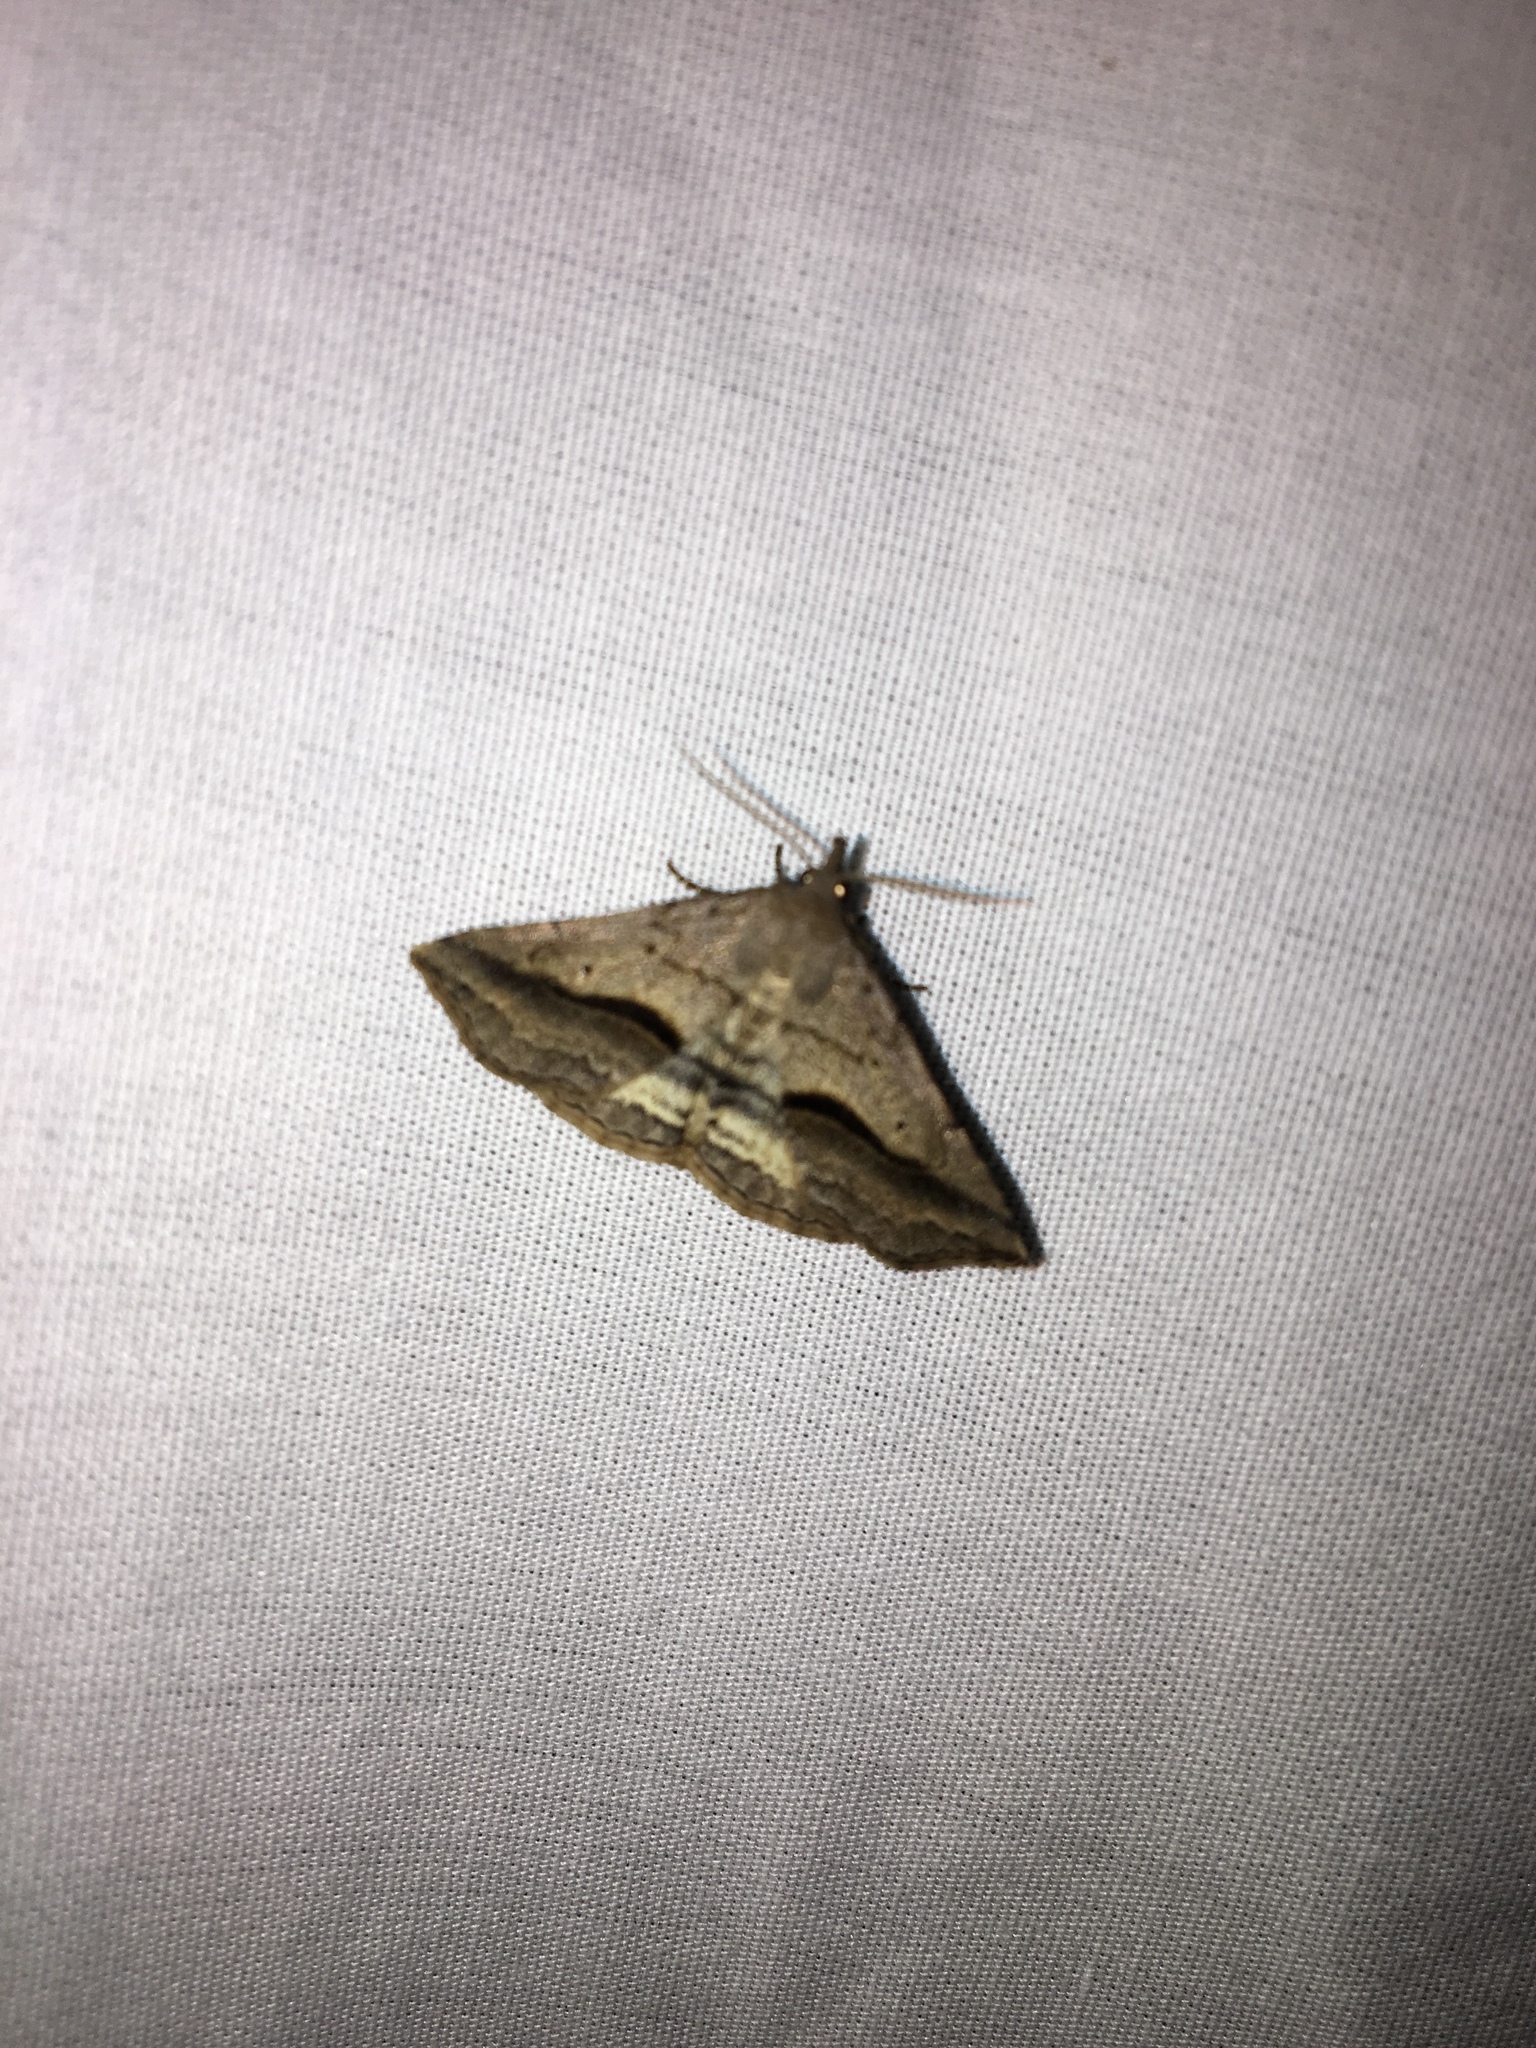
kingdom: Animalia
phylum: Arthropoda
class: Insecta
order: Lepidoptera
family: Erebidae
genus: Spargaloma
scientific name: Spargaloma perditalis
